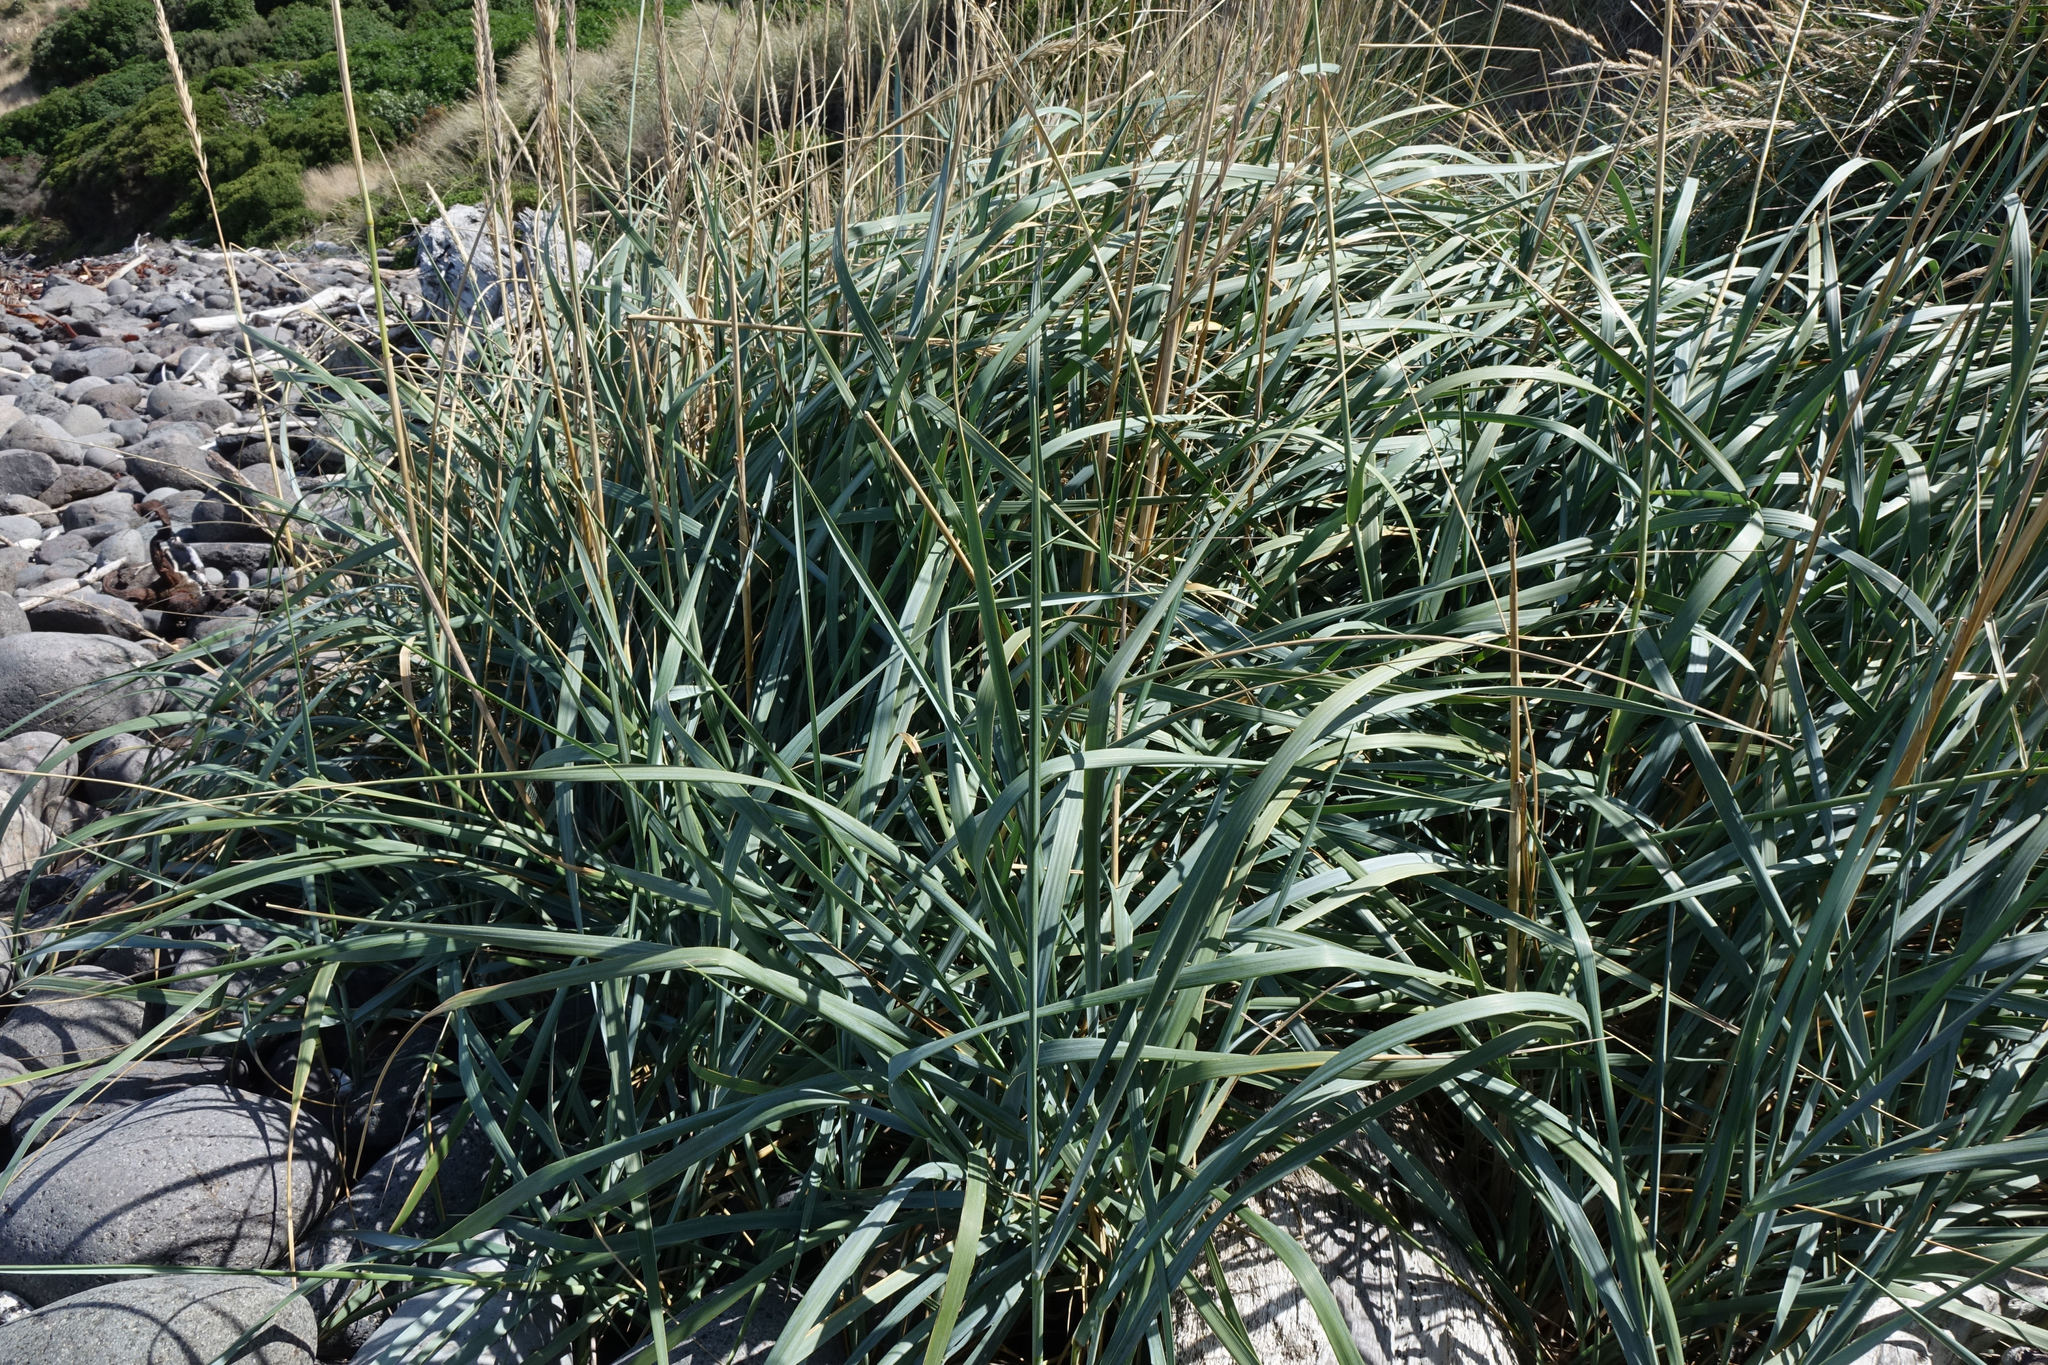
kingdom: Plantae
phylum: Tracheophyta
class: Liliopsida
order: Poales
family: Poaceae
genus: Leymus
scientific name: Leymus arenarius
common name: Lyme-grass
